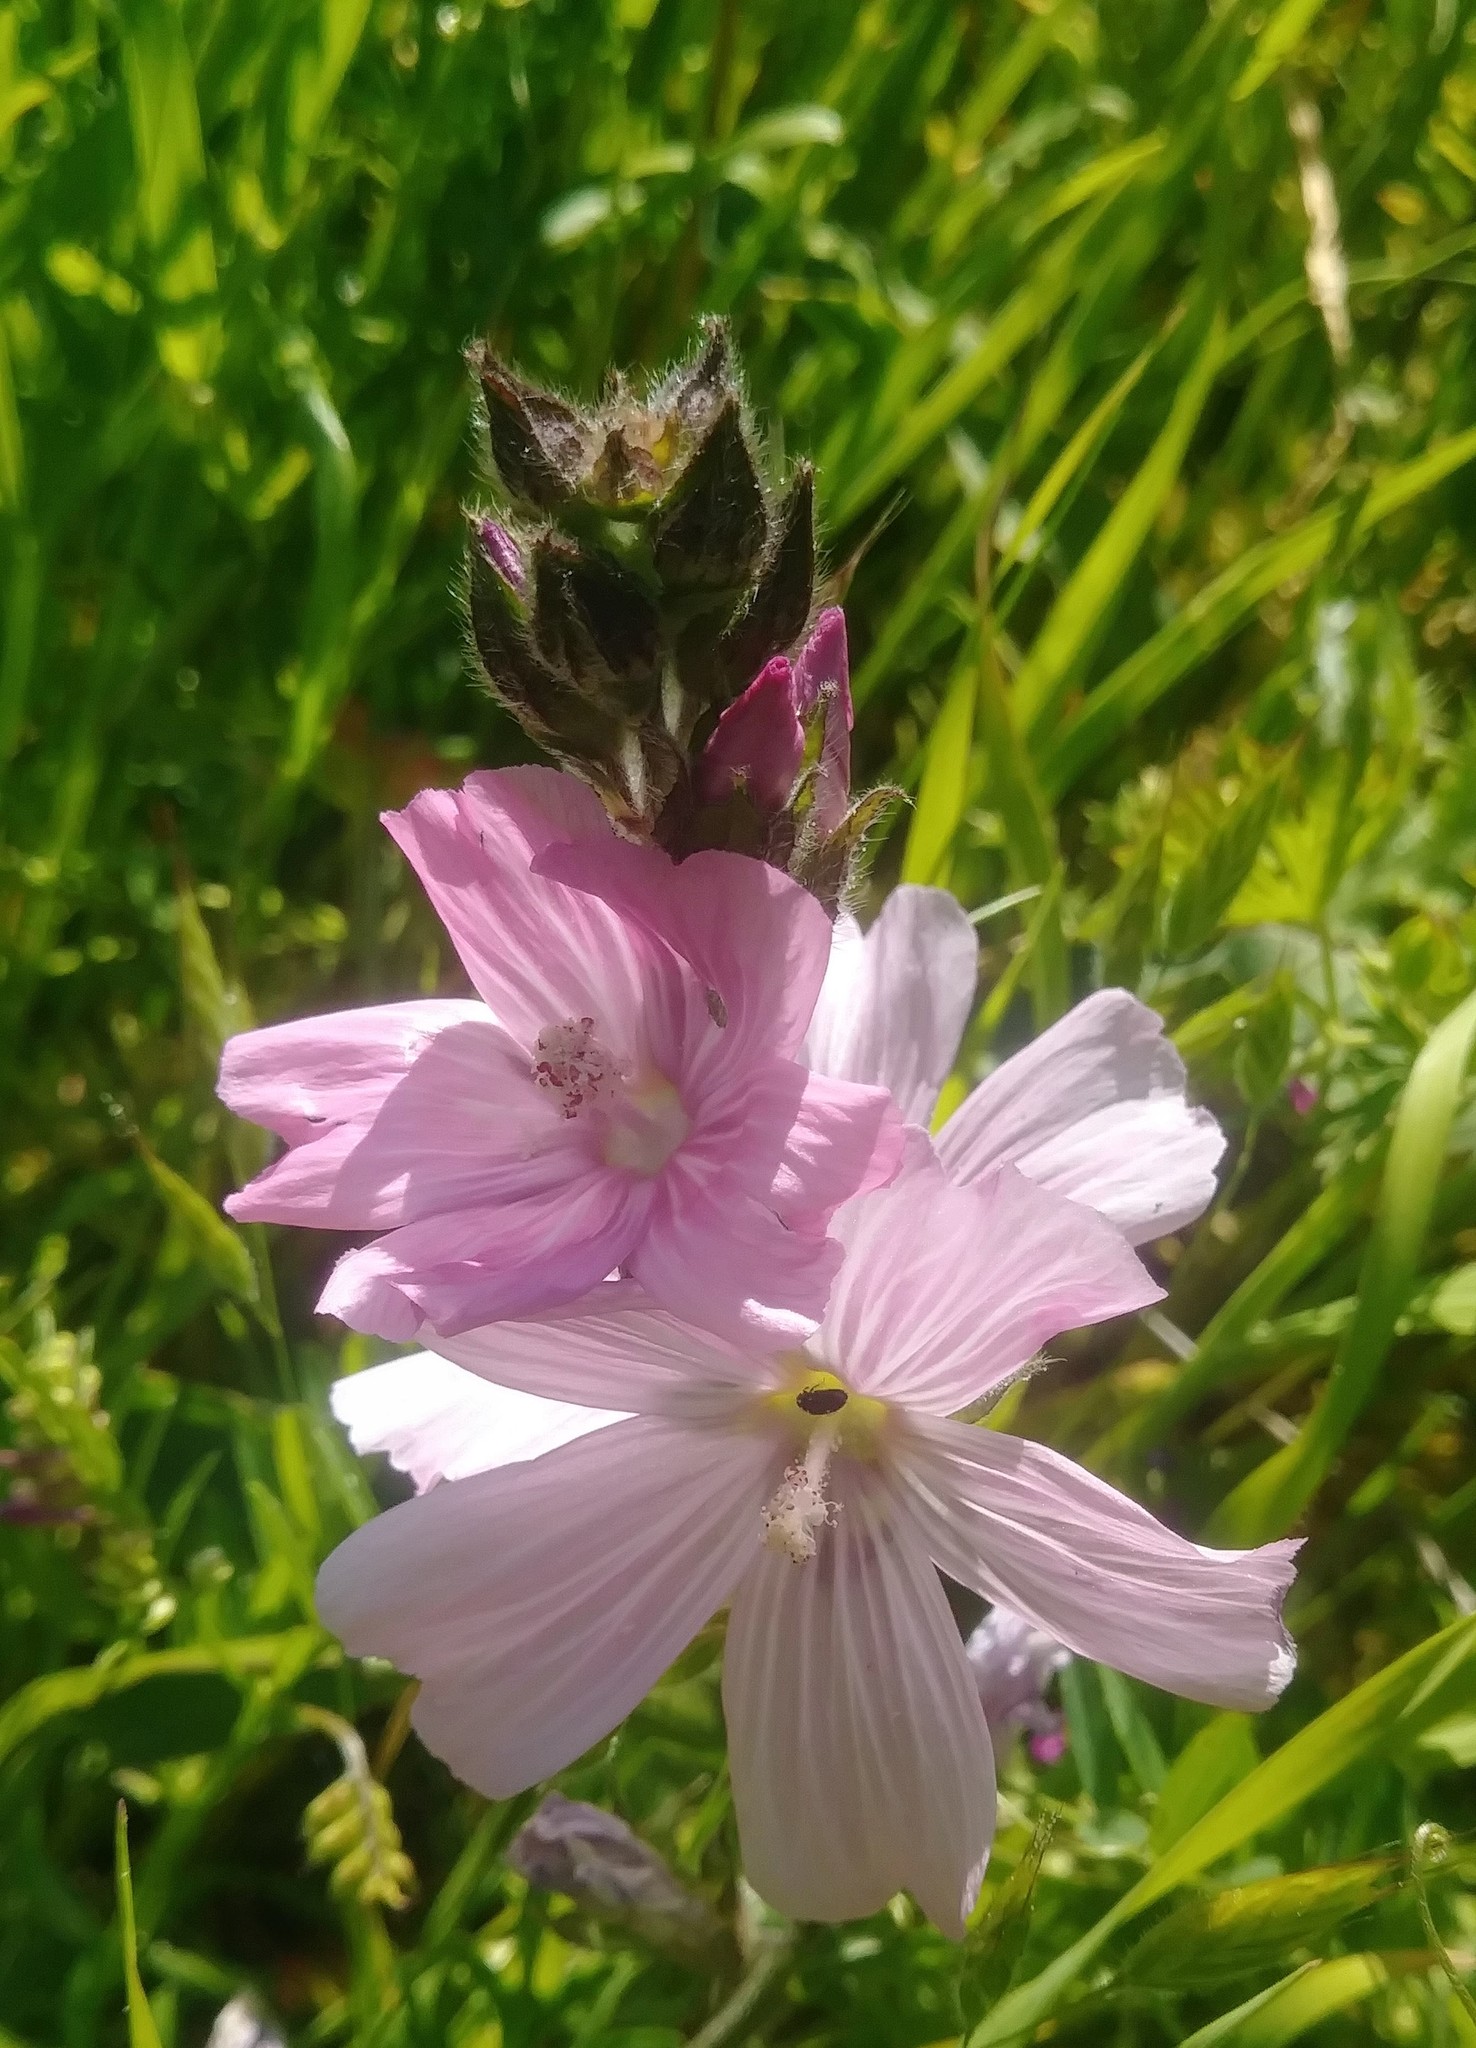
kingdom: Plantae
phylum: Tracheophyta
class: Magnoliopsida
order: Malvales
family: Malvaceae
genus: Sidalcea
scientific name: Sidalcea malviflora
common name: Greek mallow
